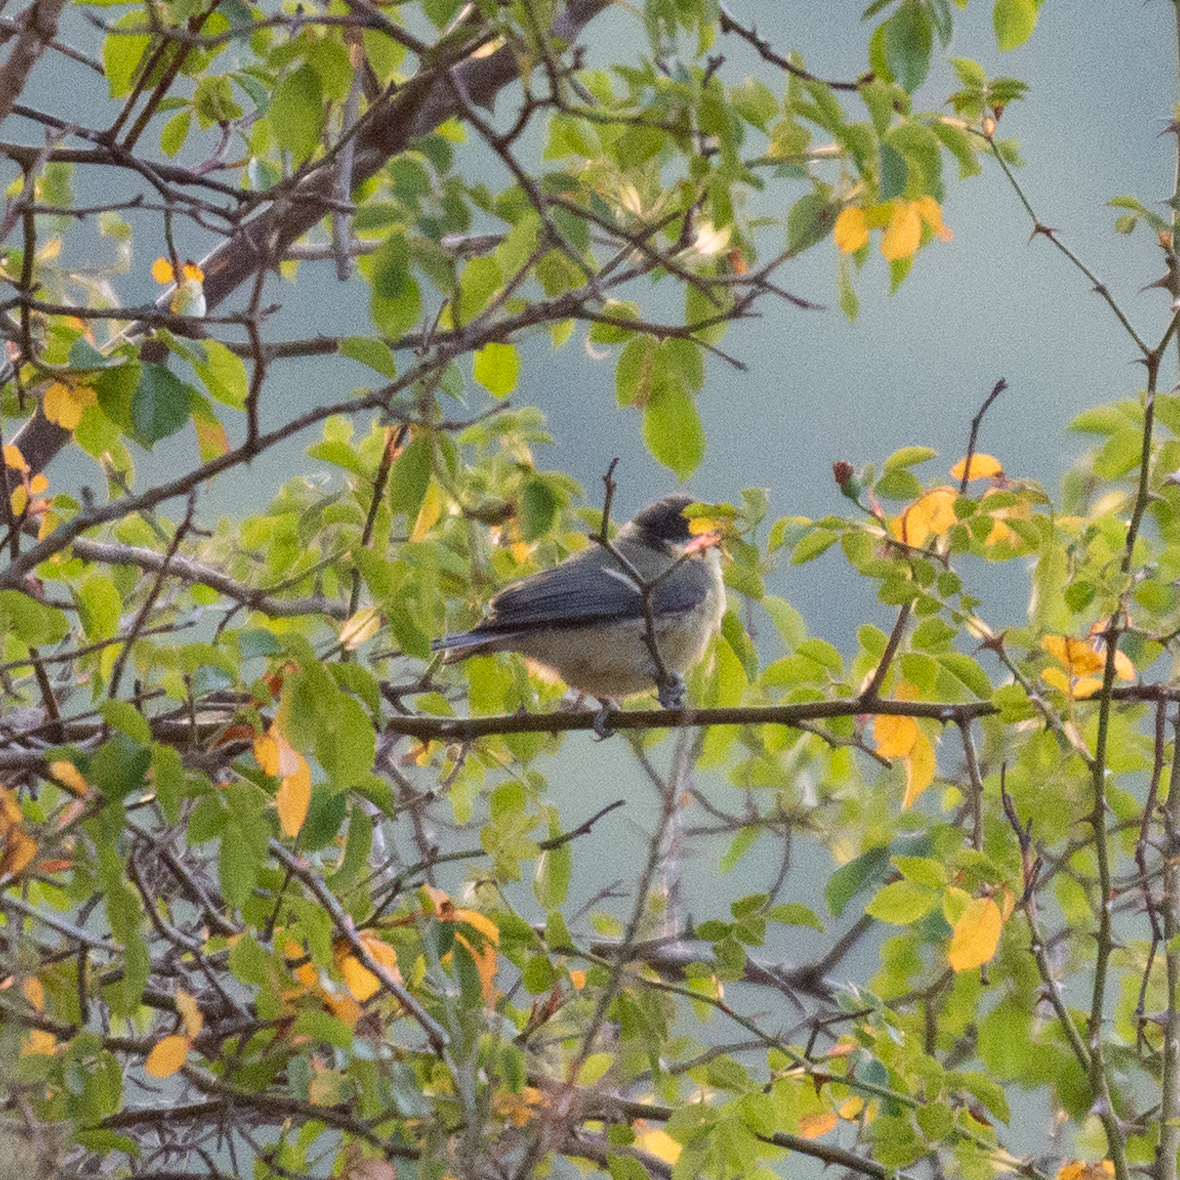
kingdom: Animalia
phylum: Chordata
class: Aves
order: Passeriformes
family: Paridae
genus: Parus
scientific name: Parus major
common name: Great tit
